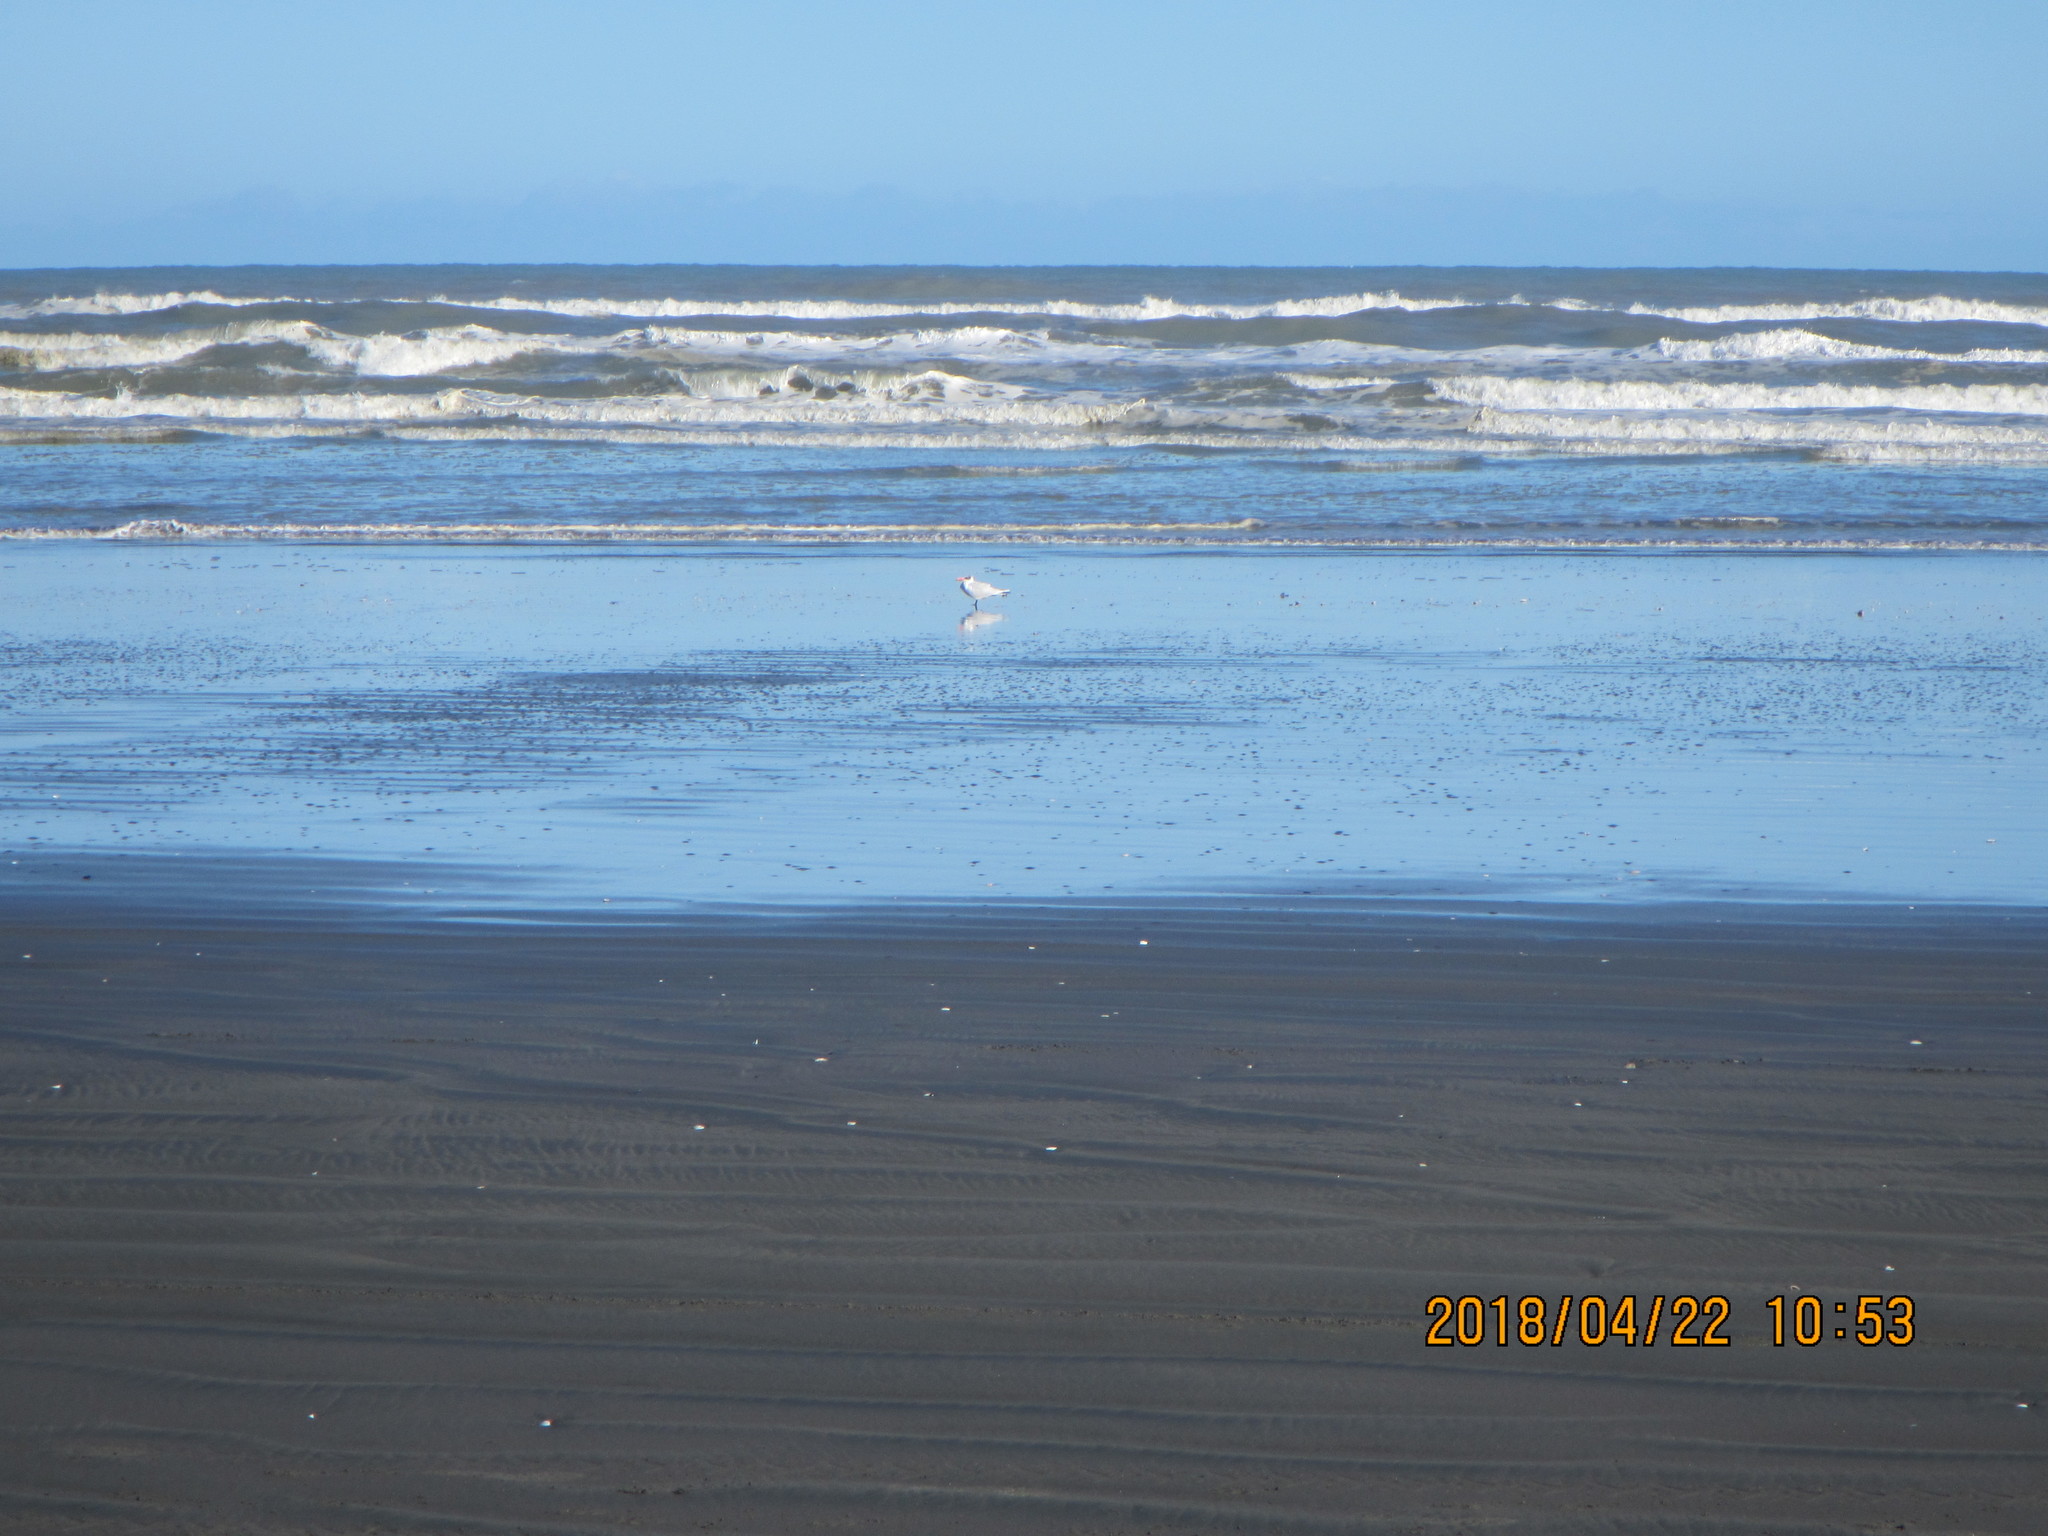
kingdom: Animalia
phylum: Chordata
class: Aves
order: Charadriiformes
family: Laridae
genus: Hydroprogne
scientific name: Hydroprogne caspia
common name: Caspian tern
